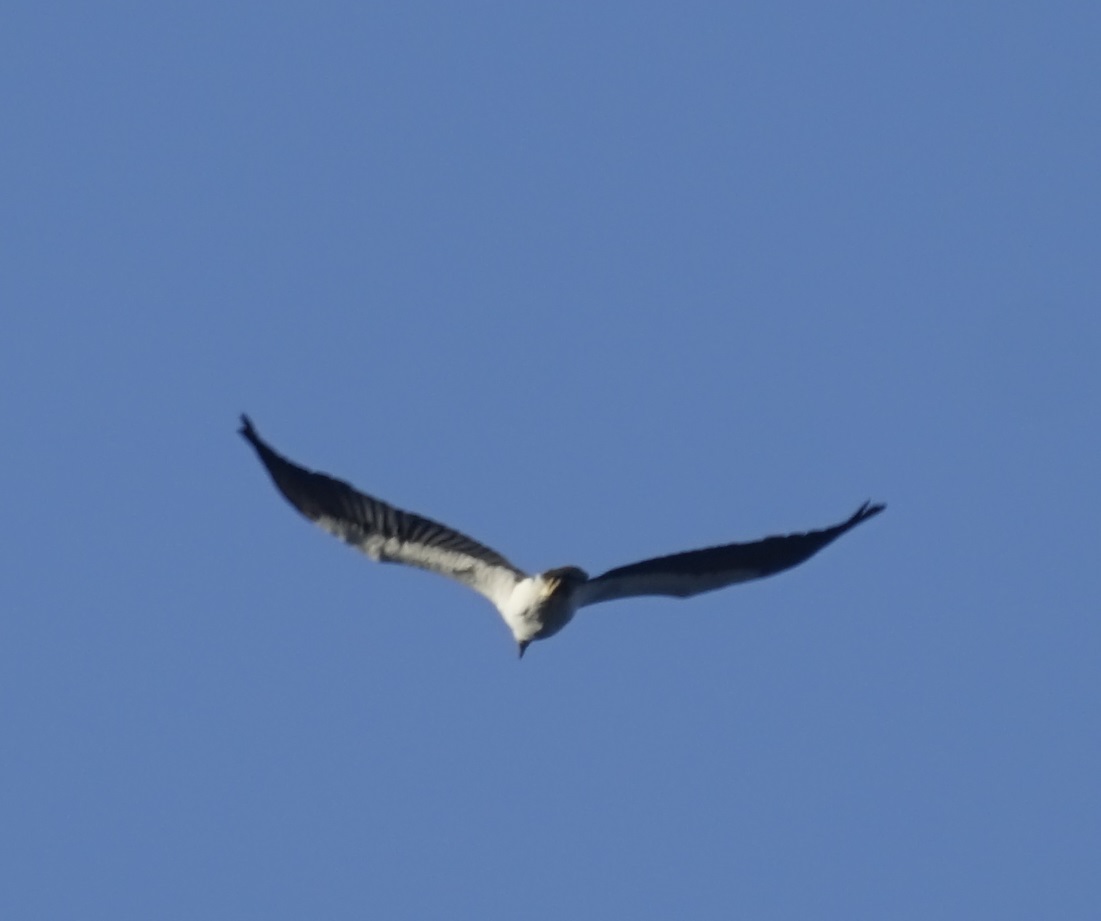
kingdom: Animalia
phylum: Chordata
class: Aves
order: Accipitriformes
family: Accipitridae
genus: Haliaeetus
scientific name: Haliaeetus leucogaster
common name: White-bellied sea eagle
